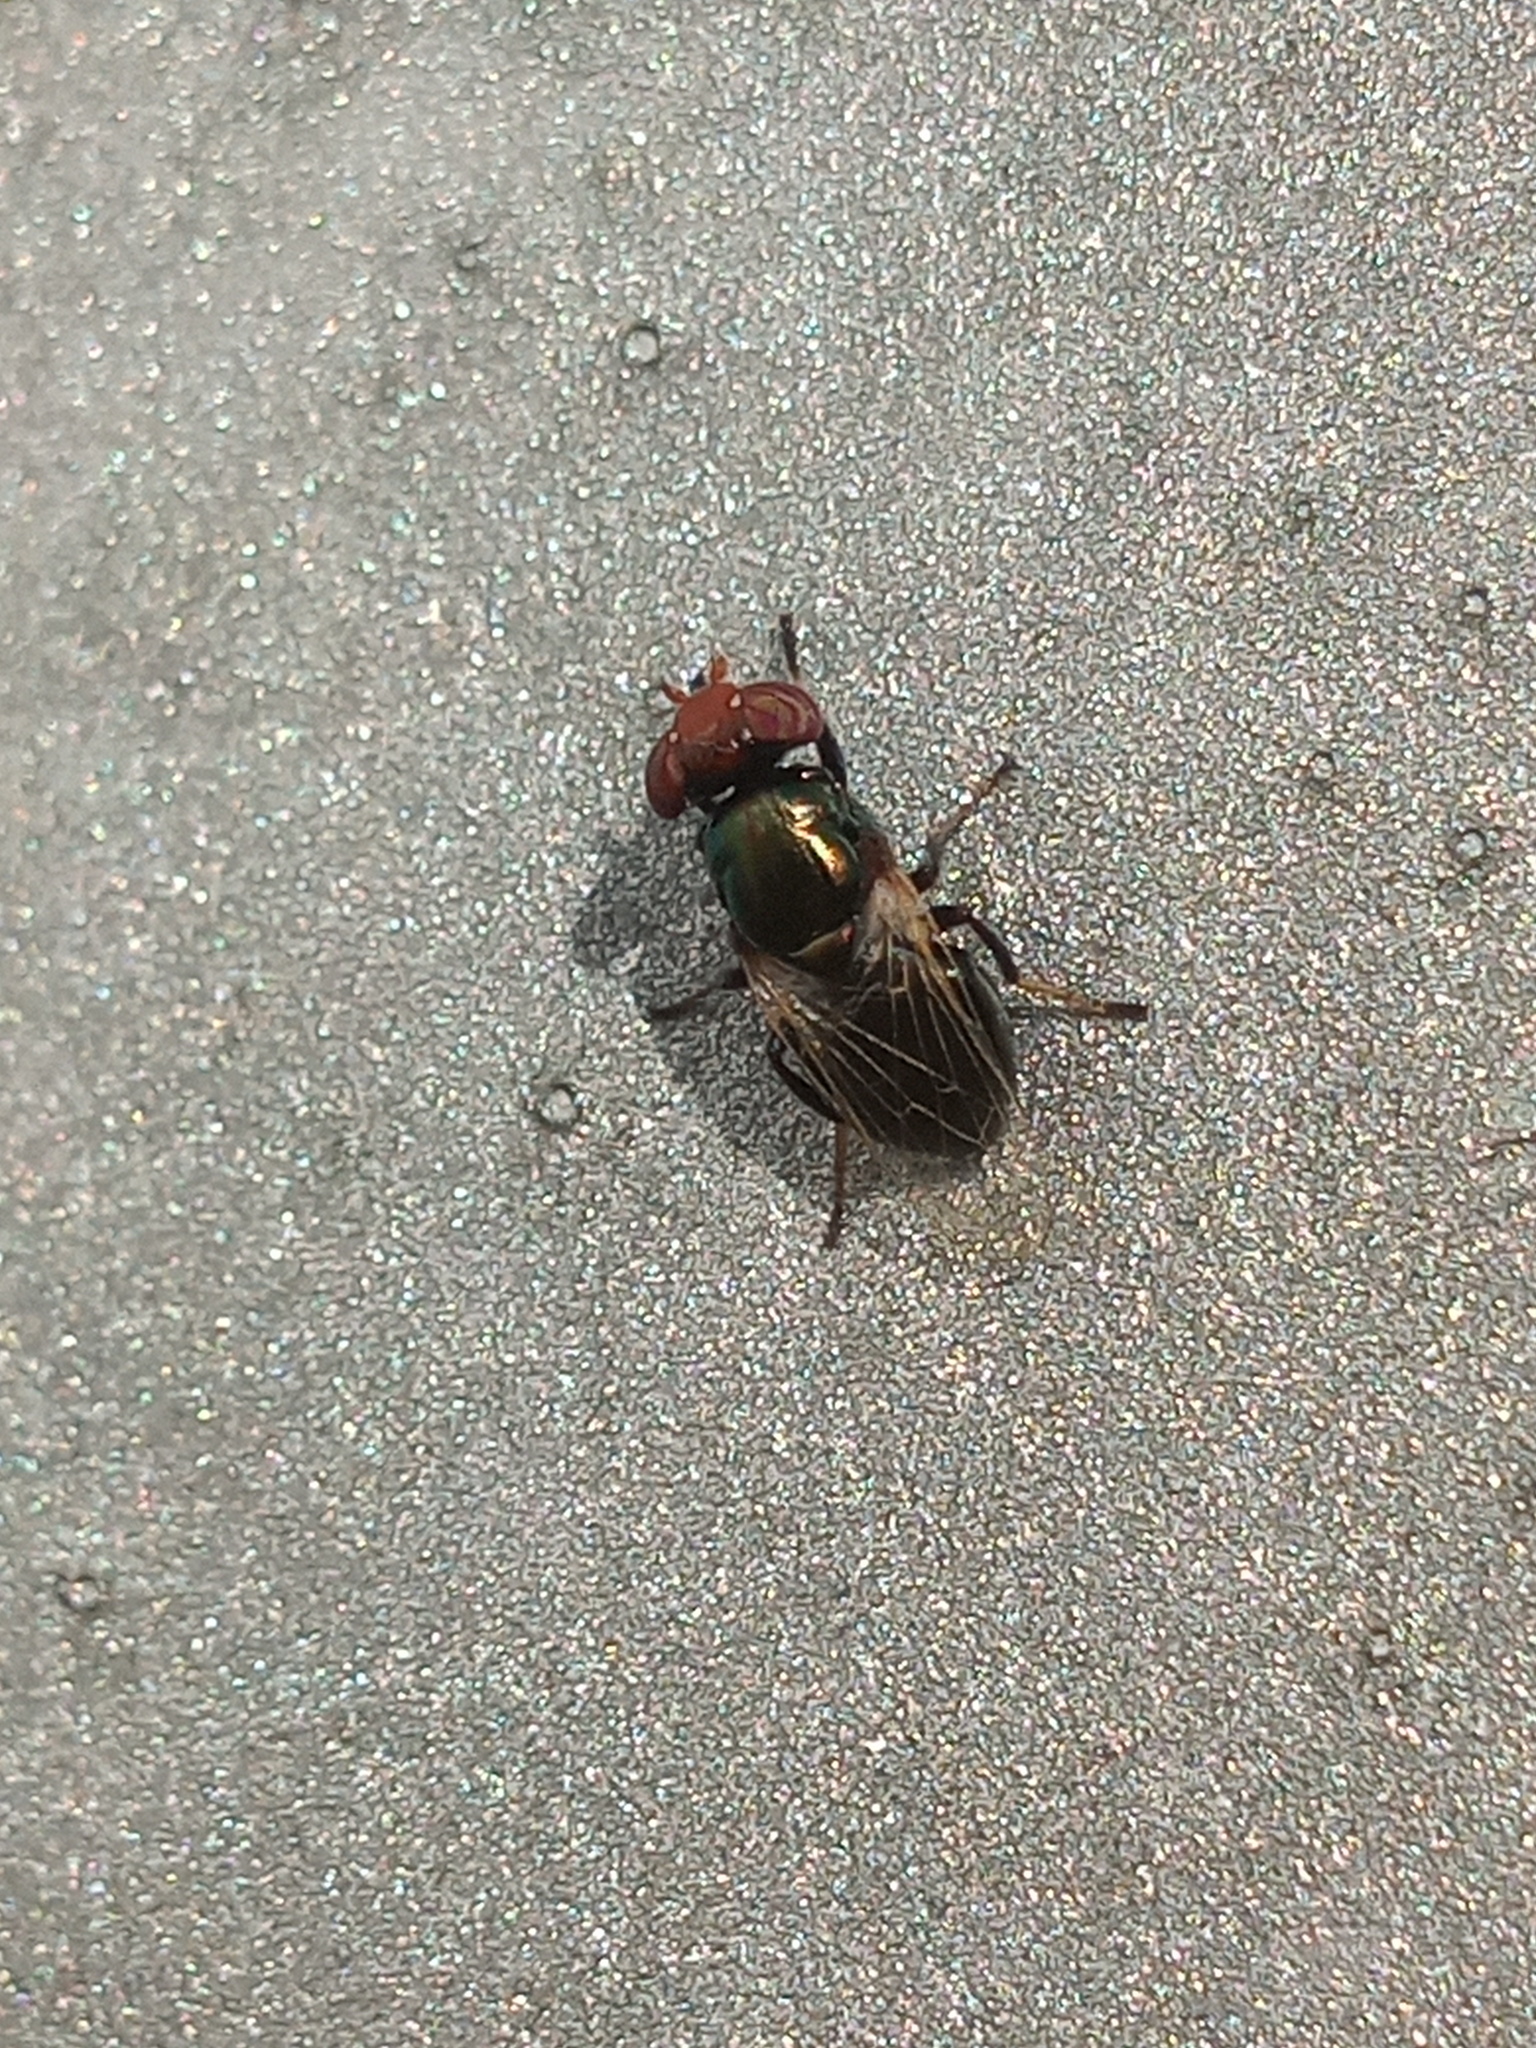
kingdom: Animalia
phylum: Arthropoda
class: Insecta
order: Diptera
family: Ulidiidae
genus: Physiphora
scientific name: Physiphora alceae
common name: Picture-winged fly
